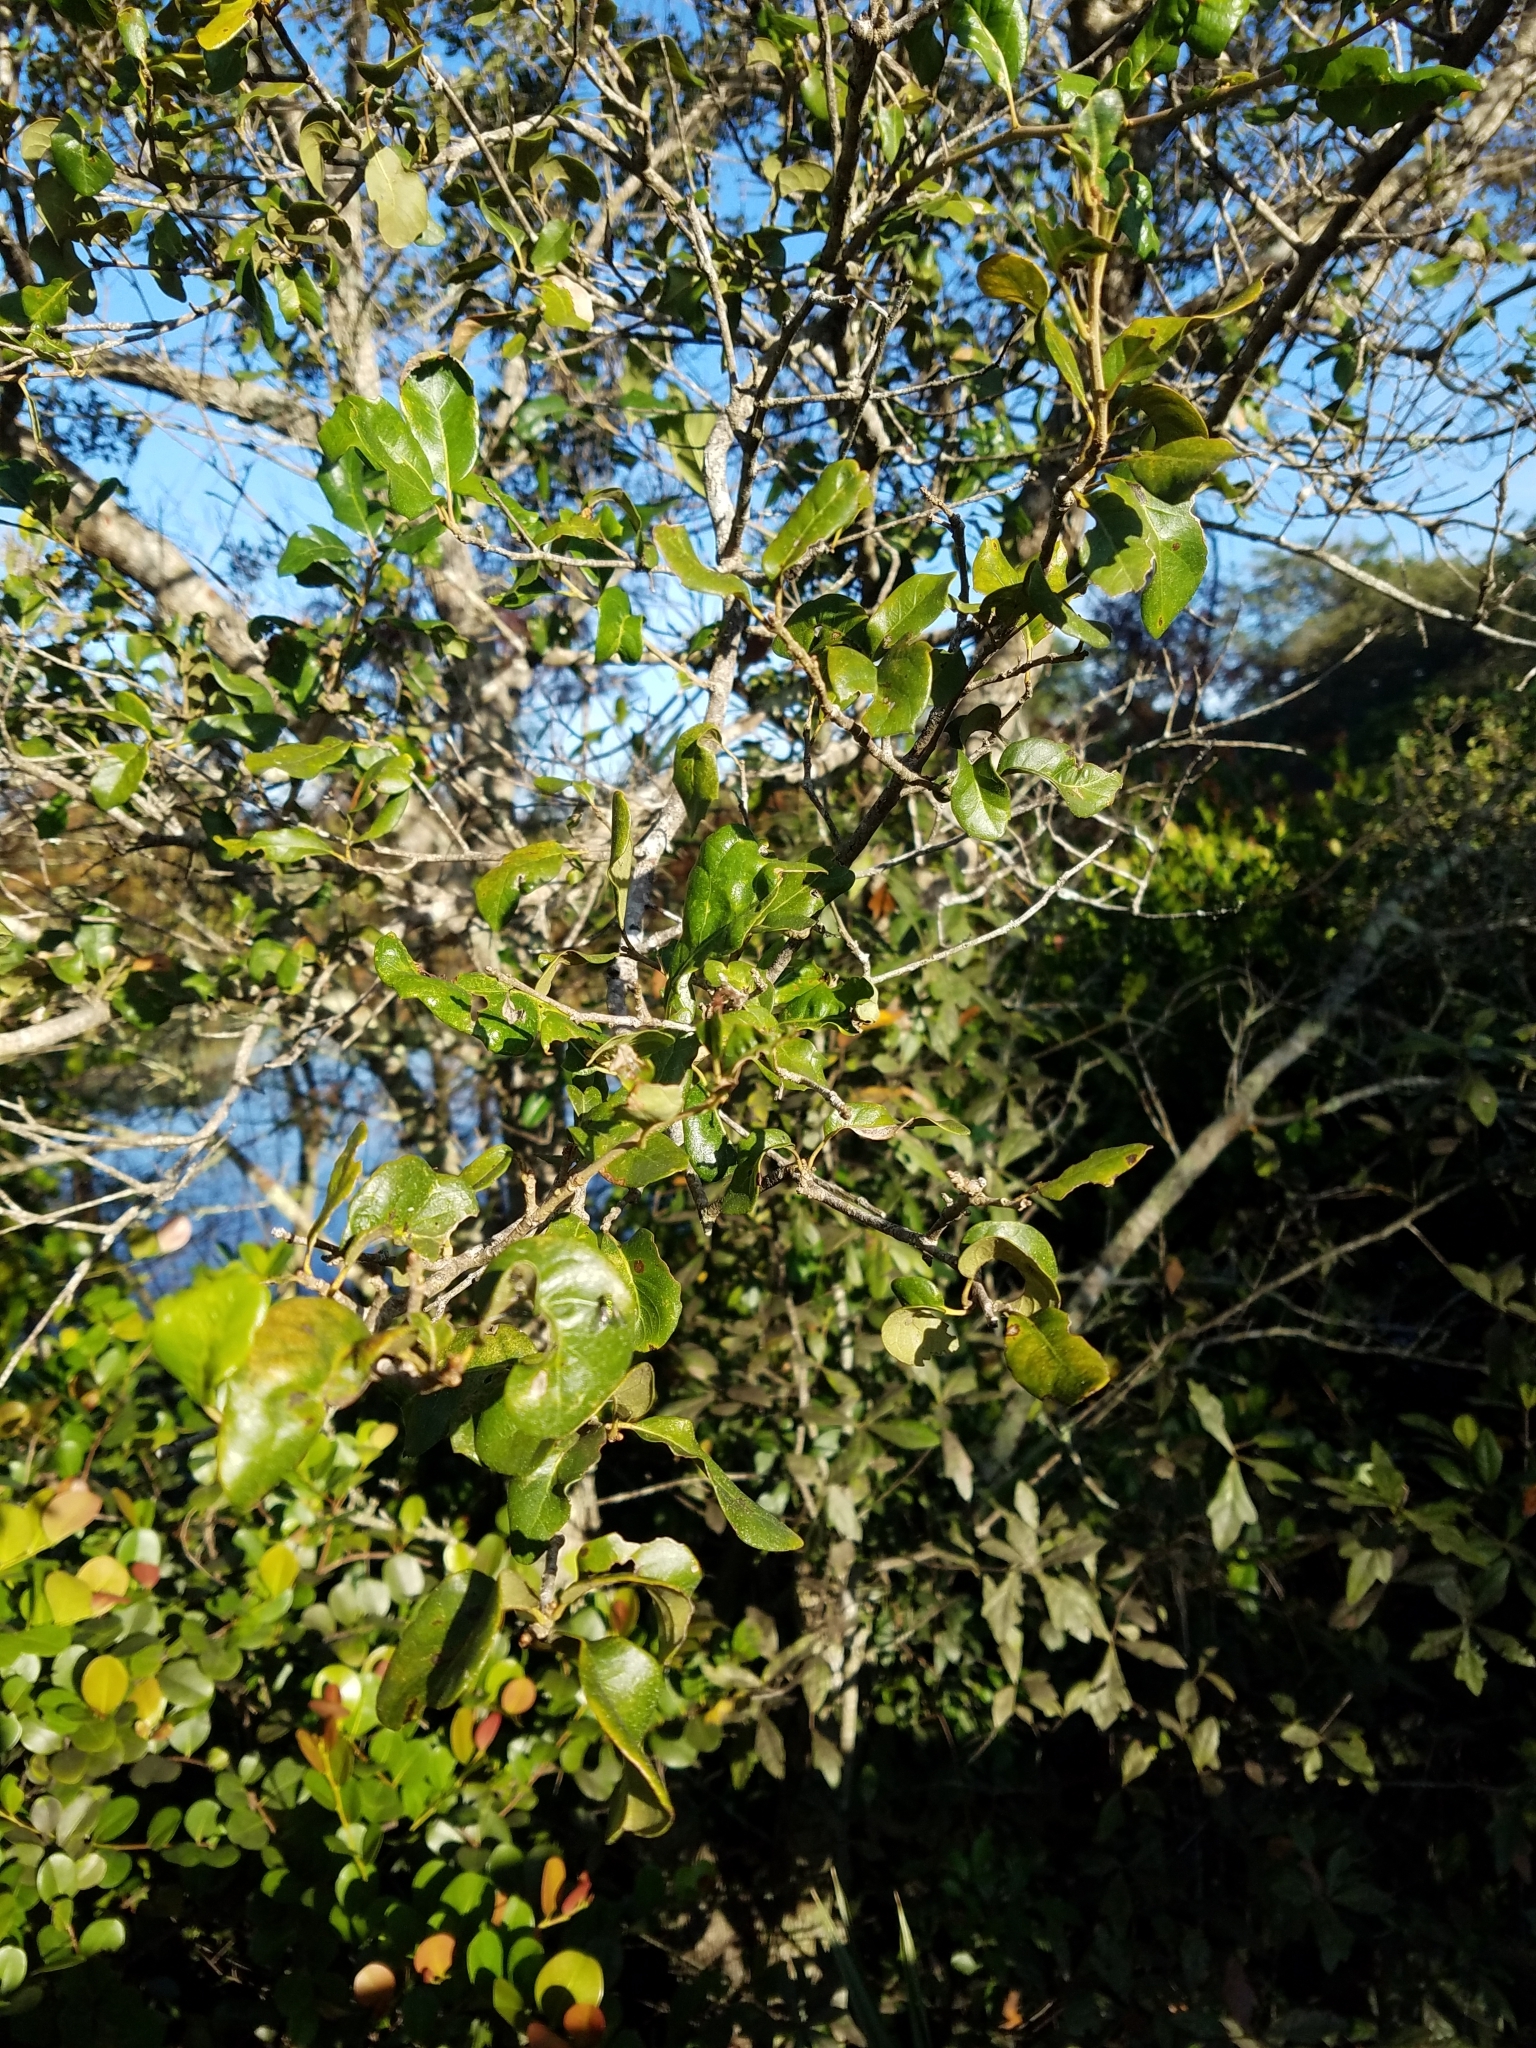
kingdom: Plantae
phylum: Tracheophyta
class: Magnoliopsida
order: Fagales
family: Fagaceae
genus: Quercus
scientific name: Quercus virginiana
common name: Southern live oak
